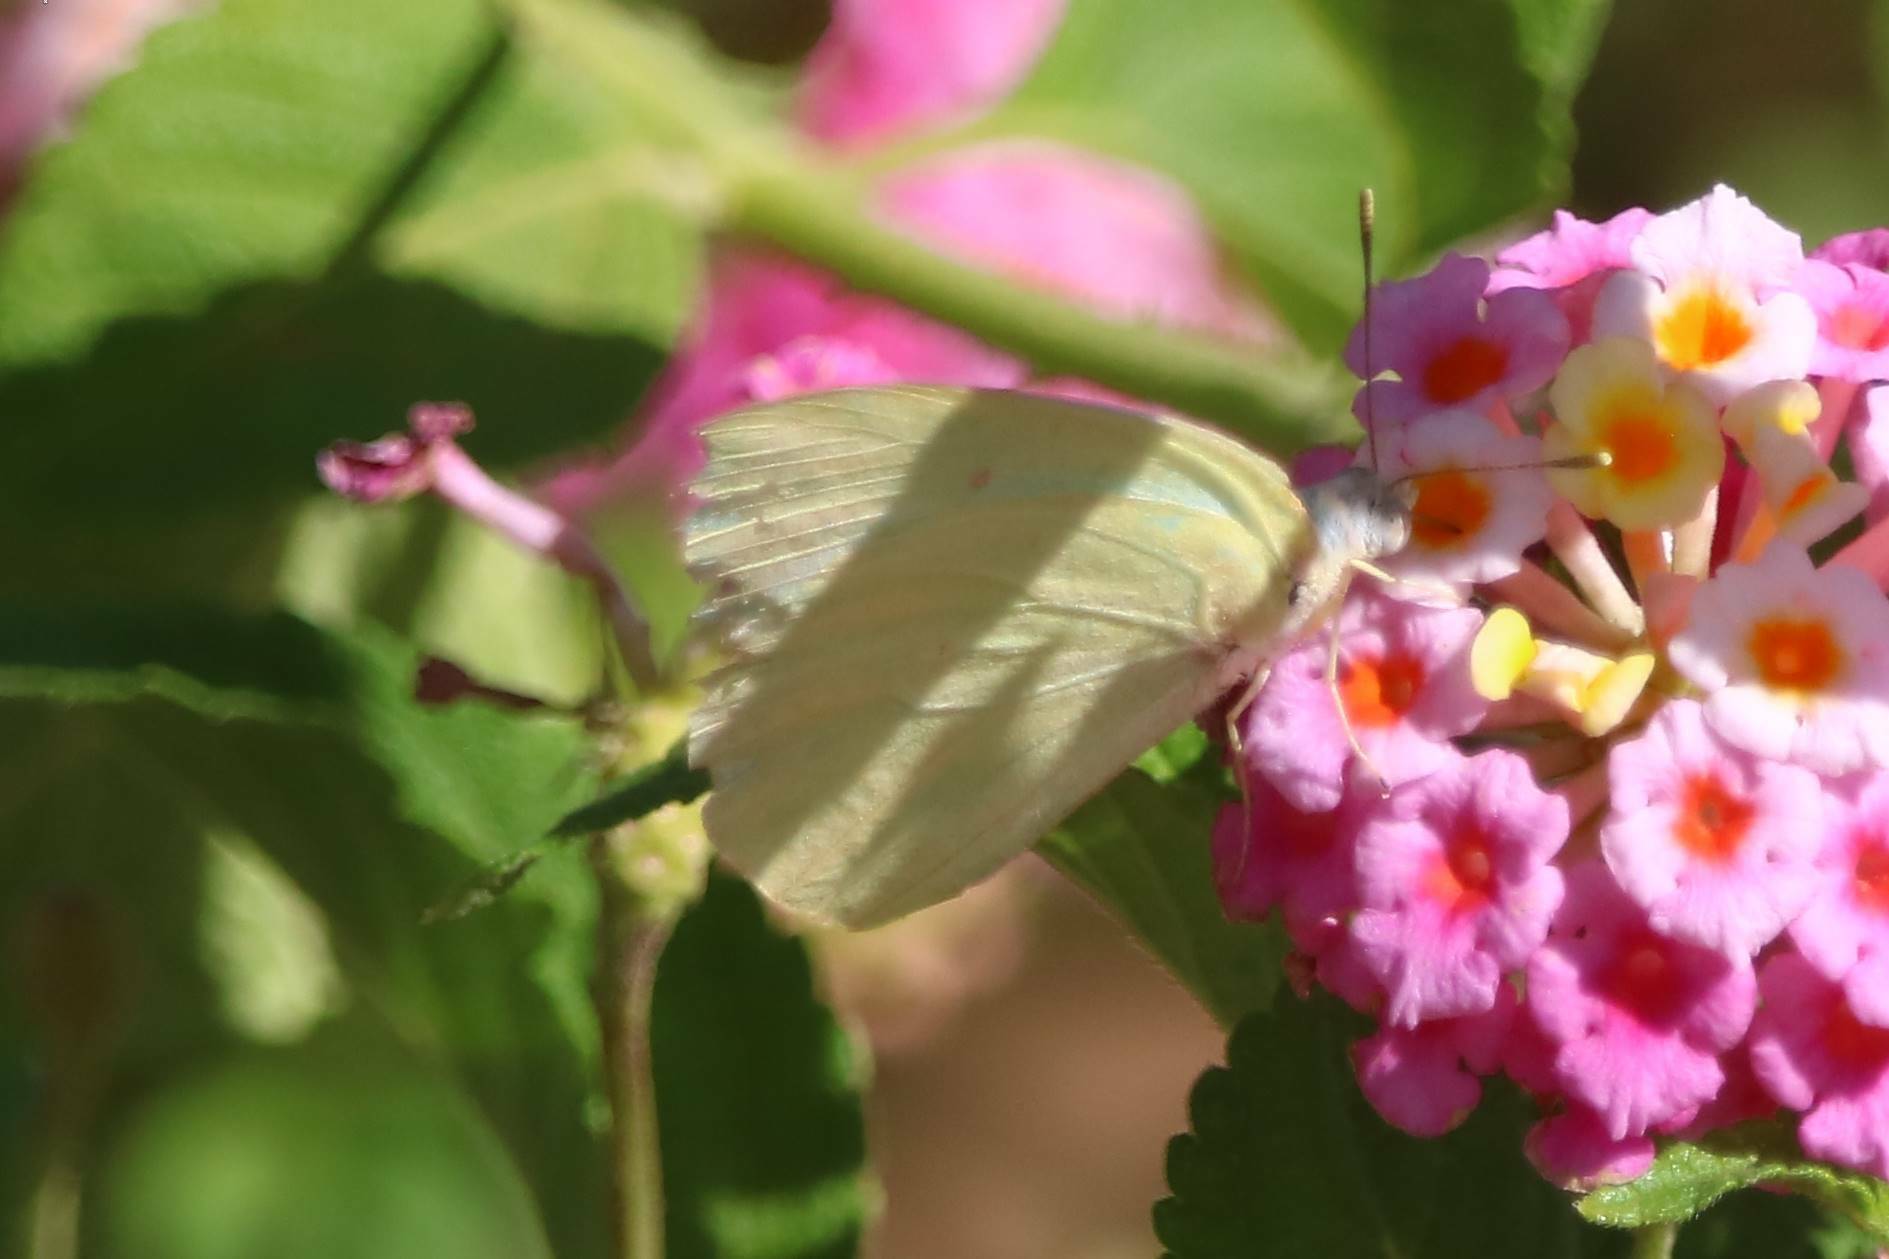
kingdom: Animalia
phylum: Arthropoda
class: Insecta
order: Lepidoptera
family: Pieridae
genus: Catopsilia
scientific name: Catopsilia florella
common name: African migrant
